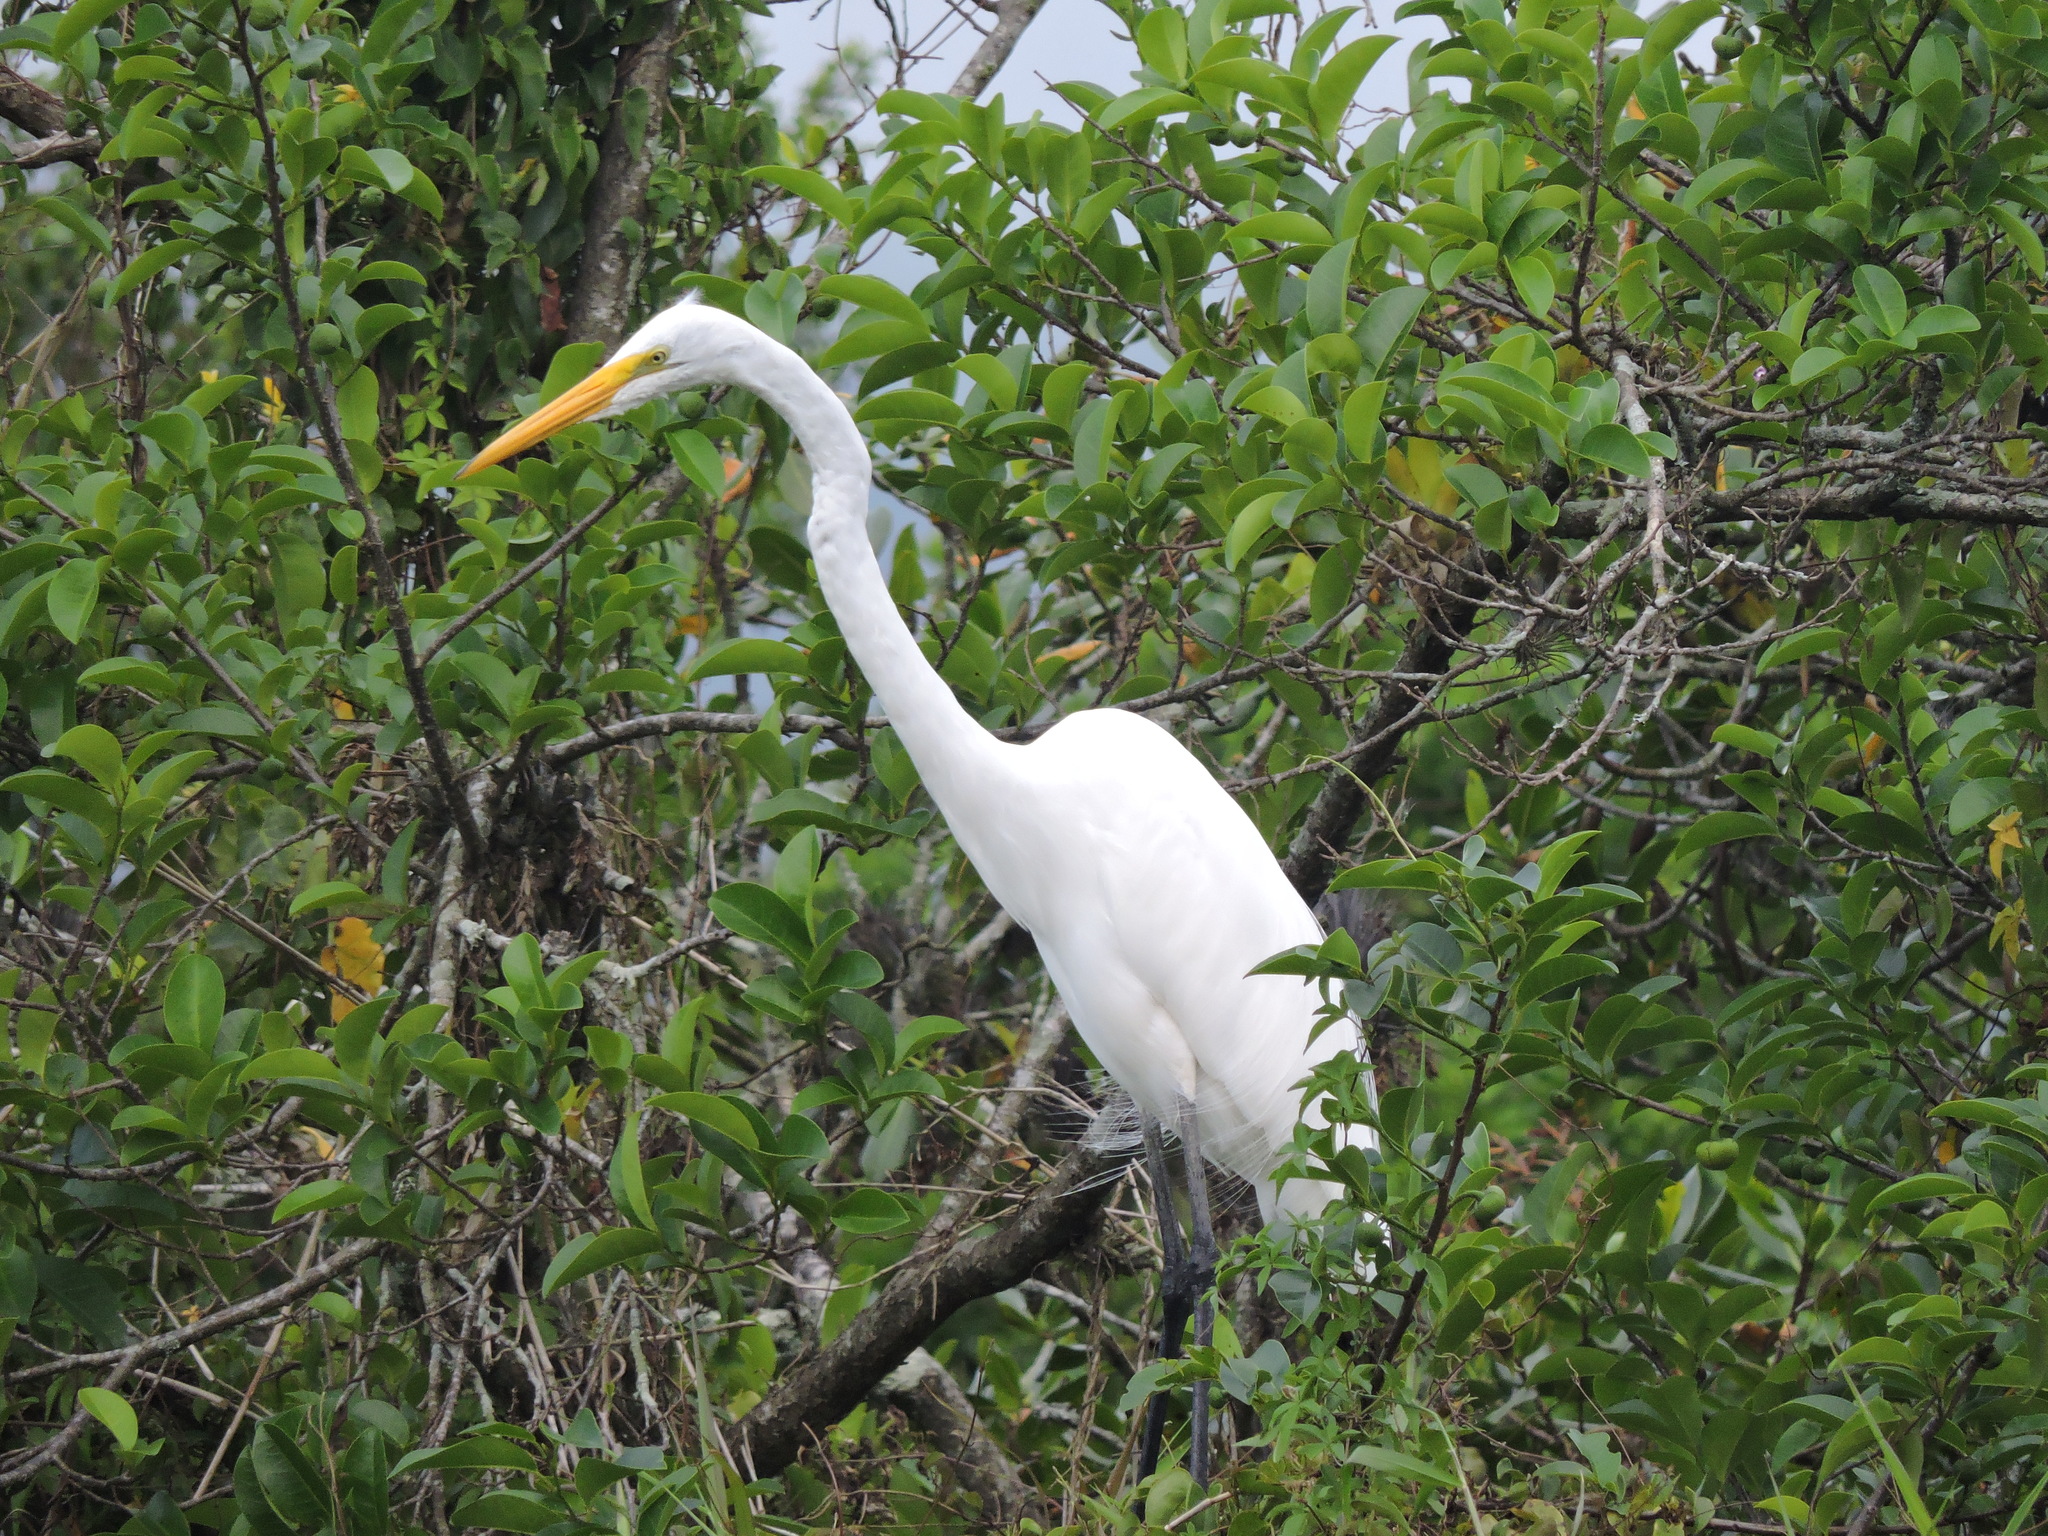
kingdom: Animalia
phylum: Chordata
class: Aves
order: Pelecaniformes
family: Ardeidae
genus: Ardea
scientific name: Ardea alba
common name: Great egret
